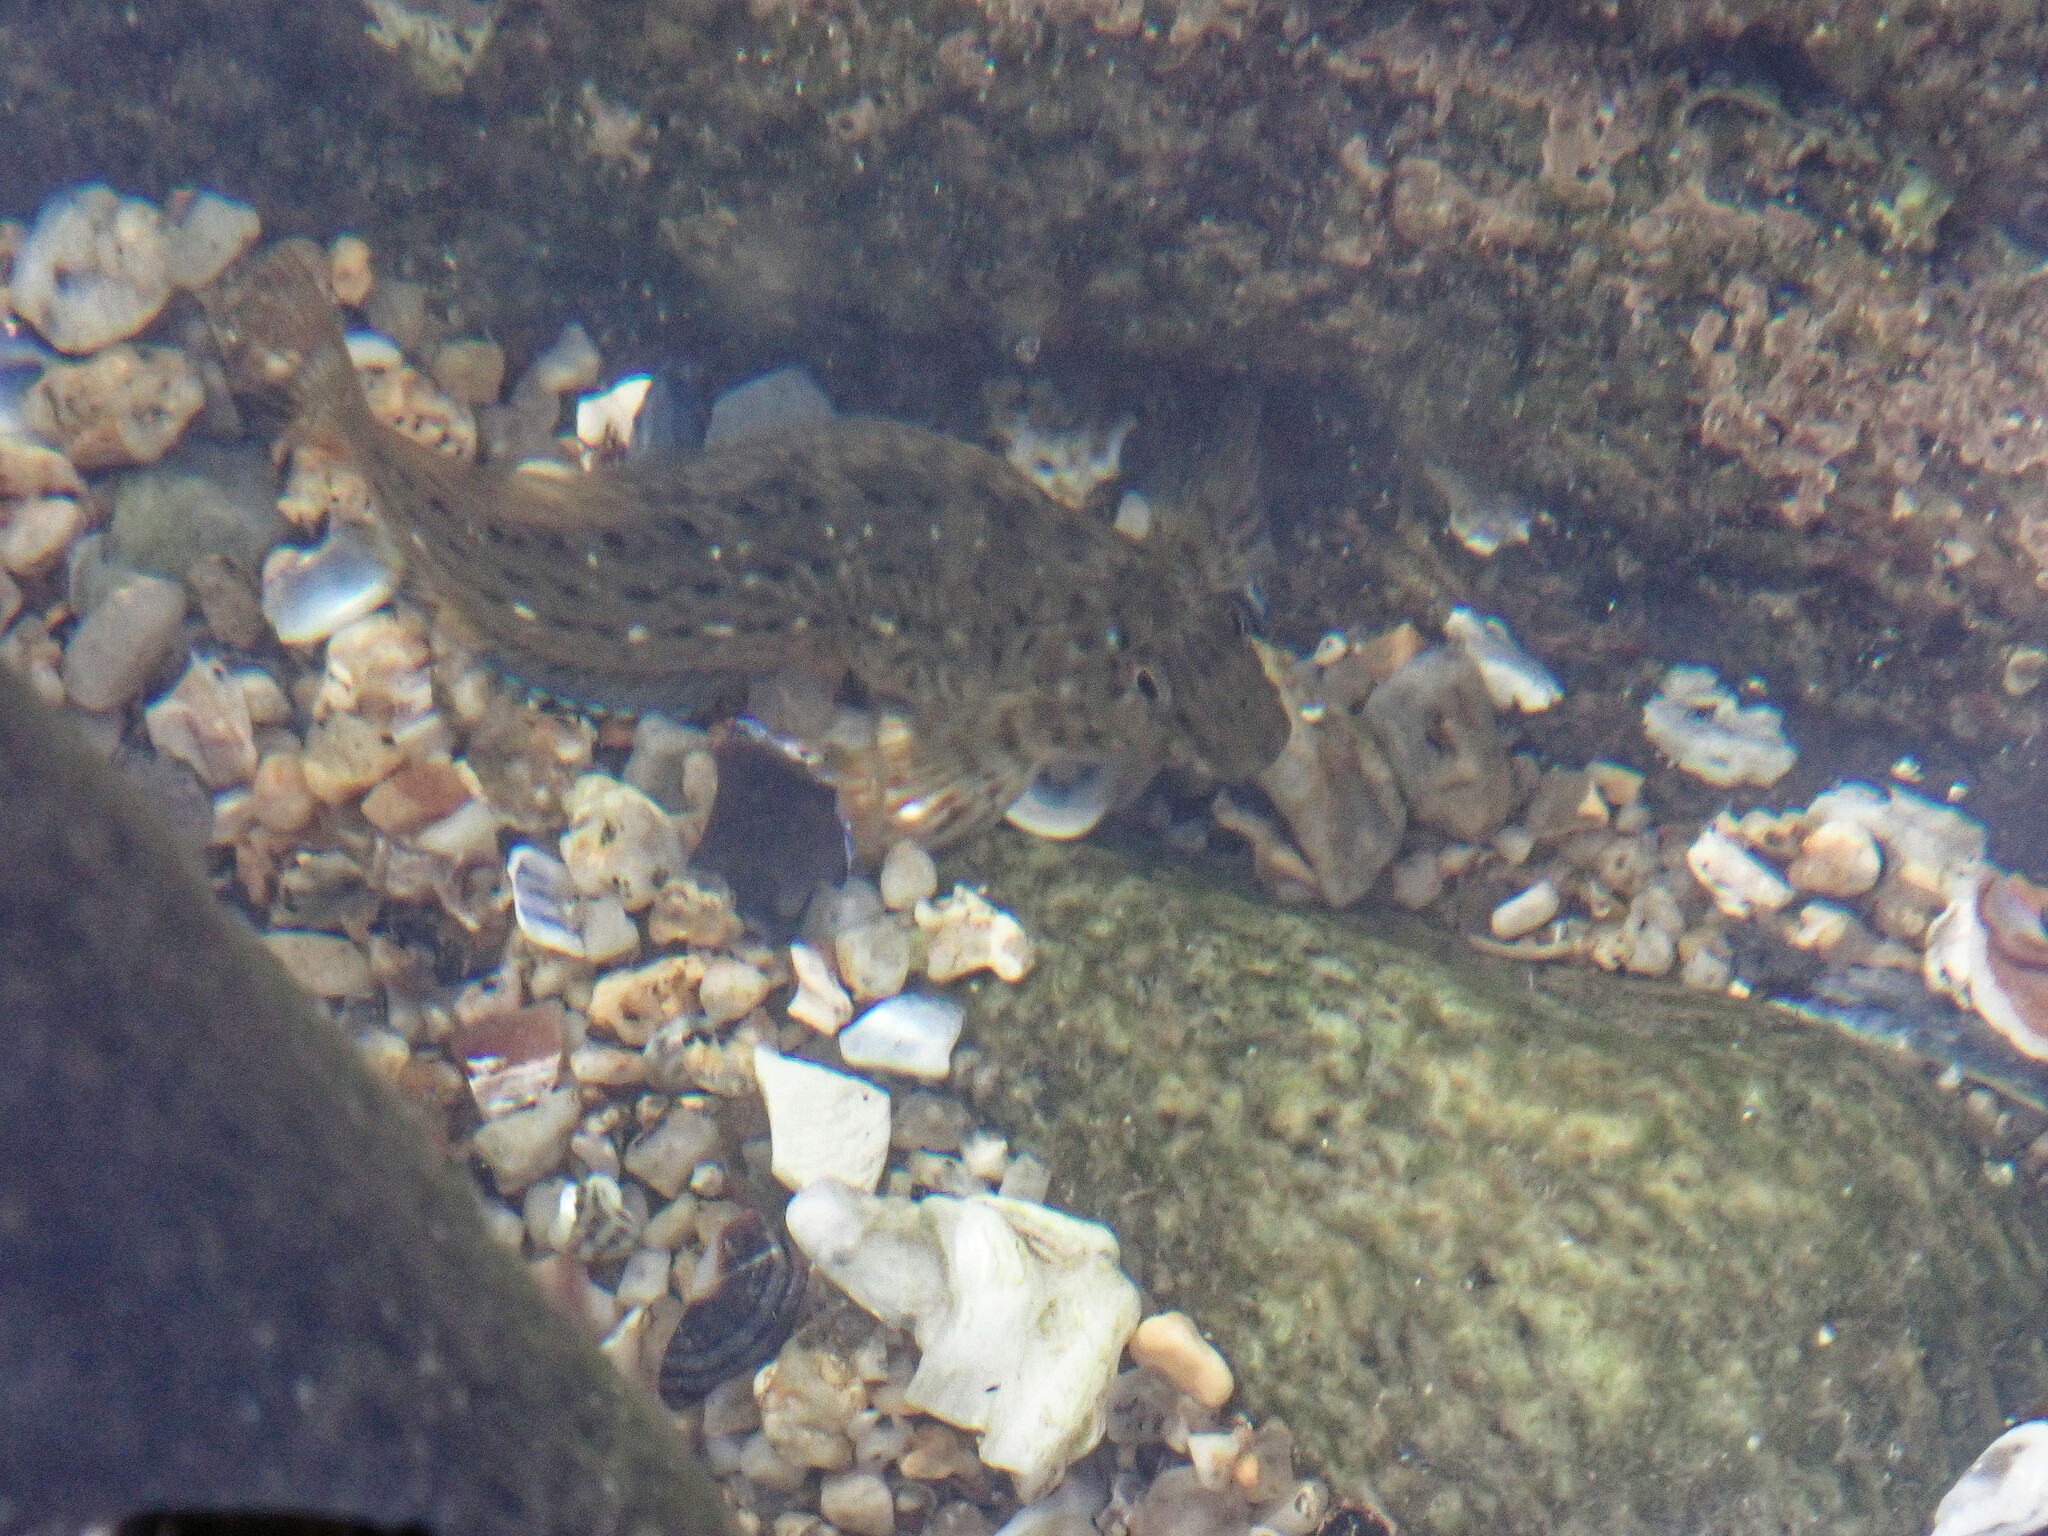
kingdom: Animalia
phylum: Chordata
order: Perciformes
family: Blenniidae
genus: Parablennius
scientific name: Parablennius sanguinolentus
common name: Black sea blenny
